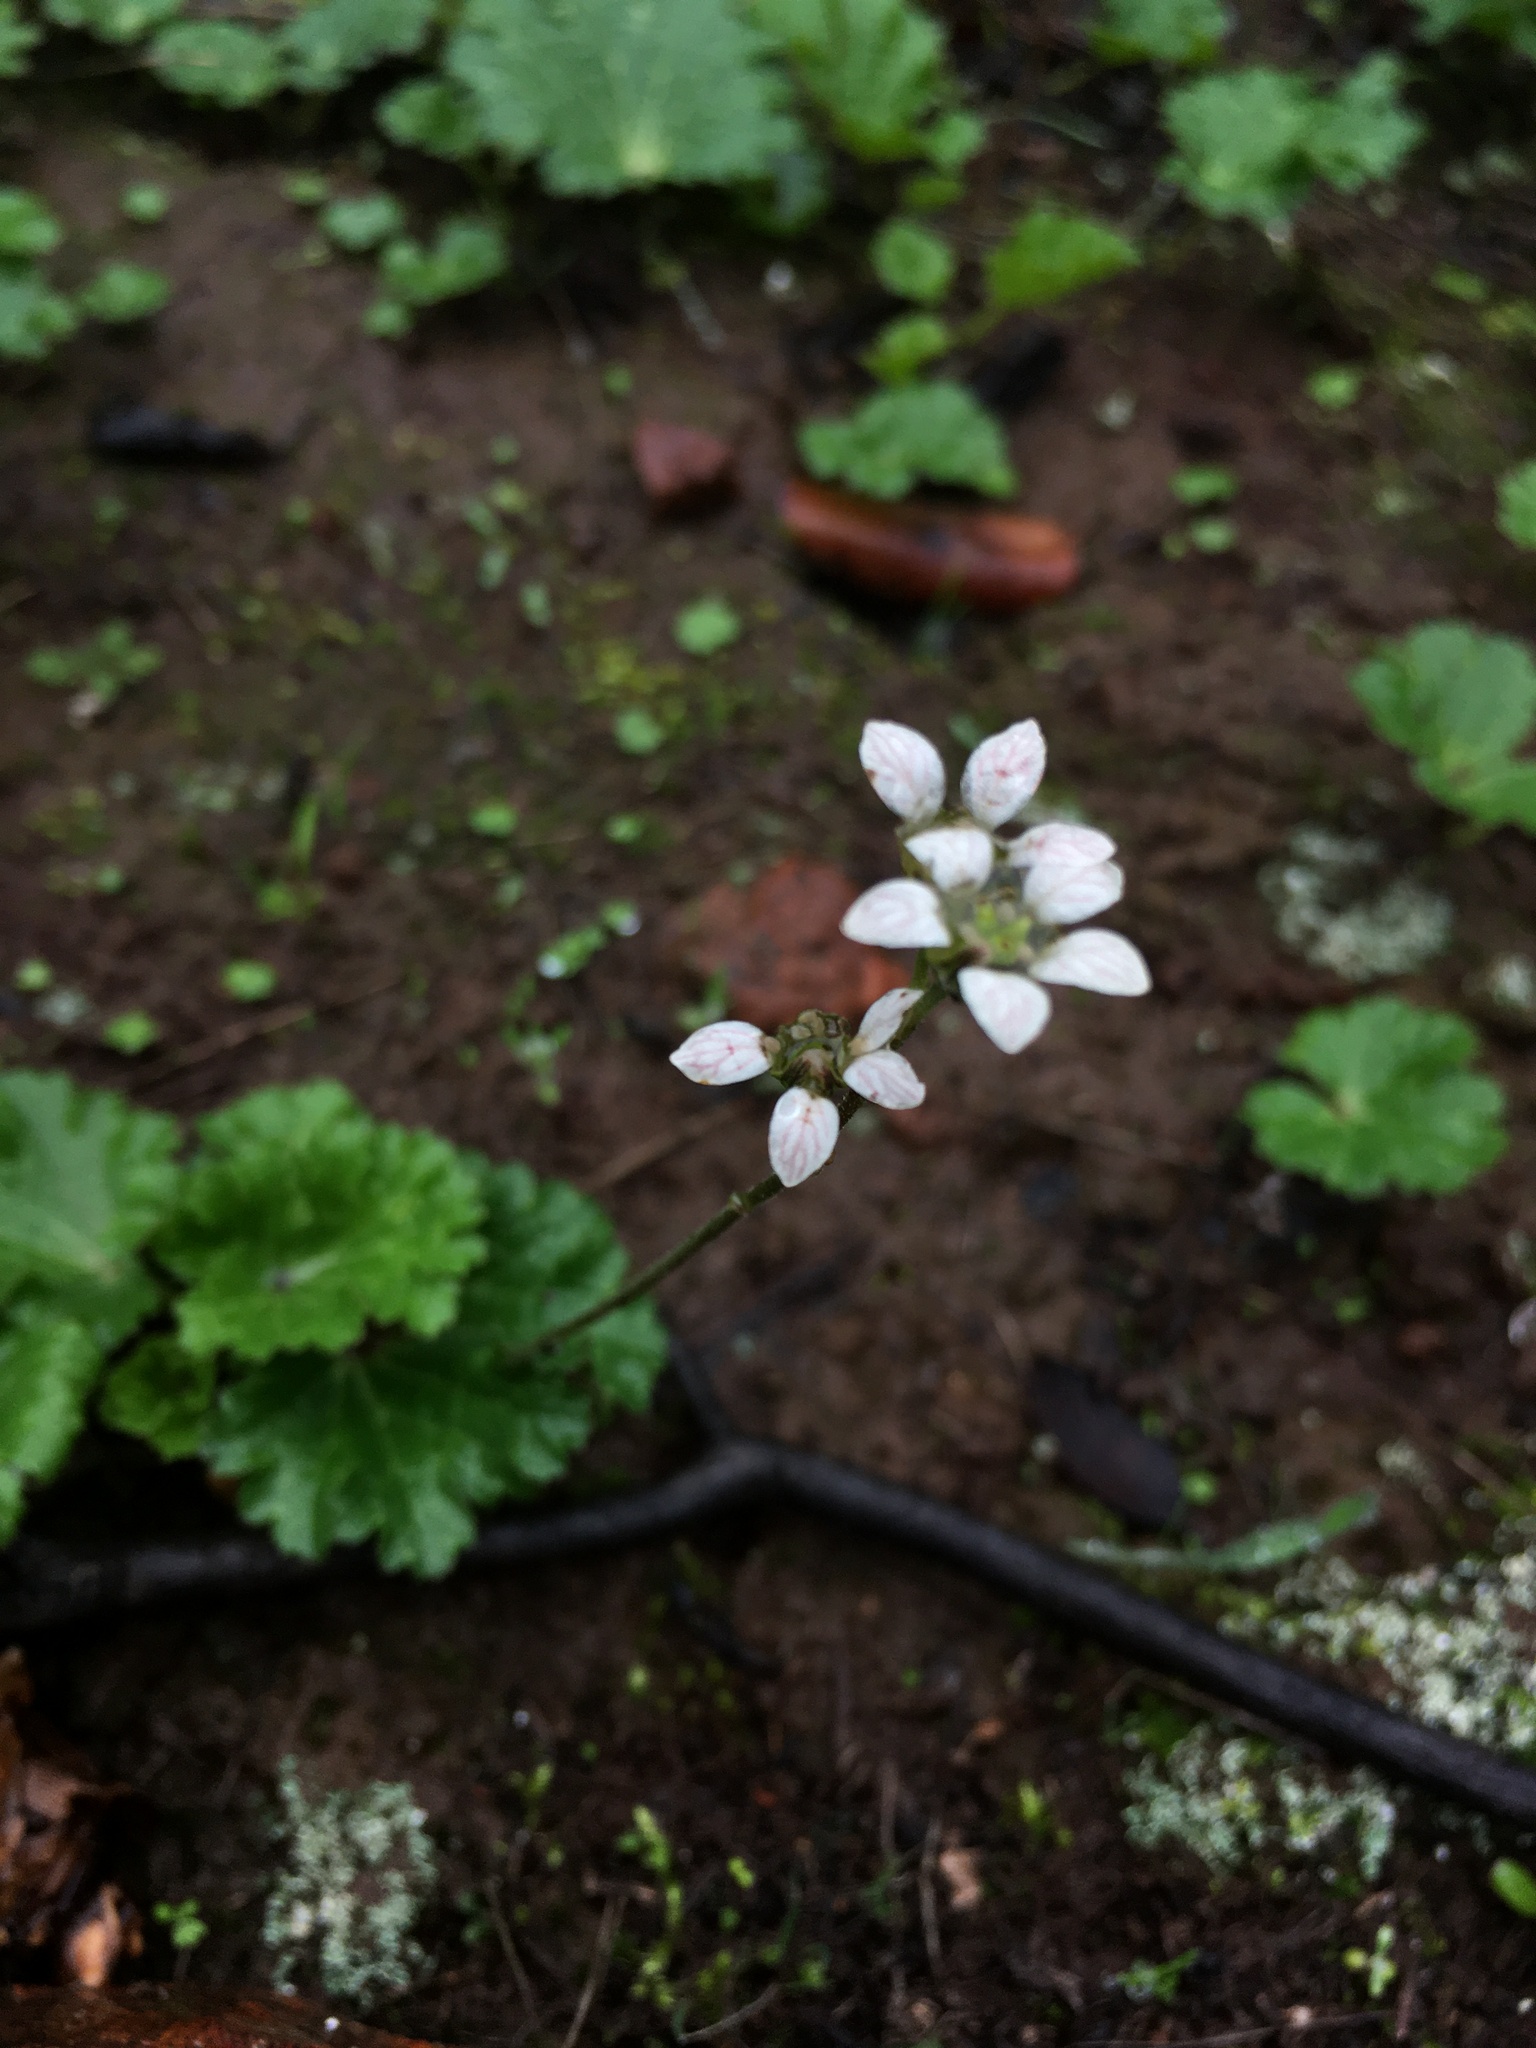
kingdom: Plantae
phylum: Tracheophyta
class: Magnoliopsida
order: Saxifragales
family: Saxifragaceae
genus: Jepsonia
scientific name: Jepsonia malvifolia
